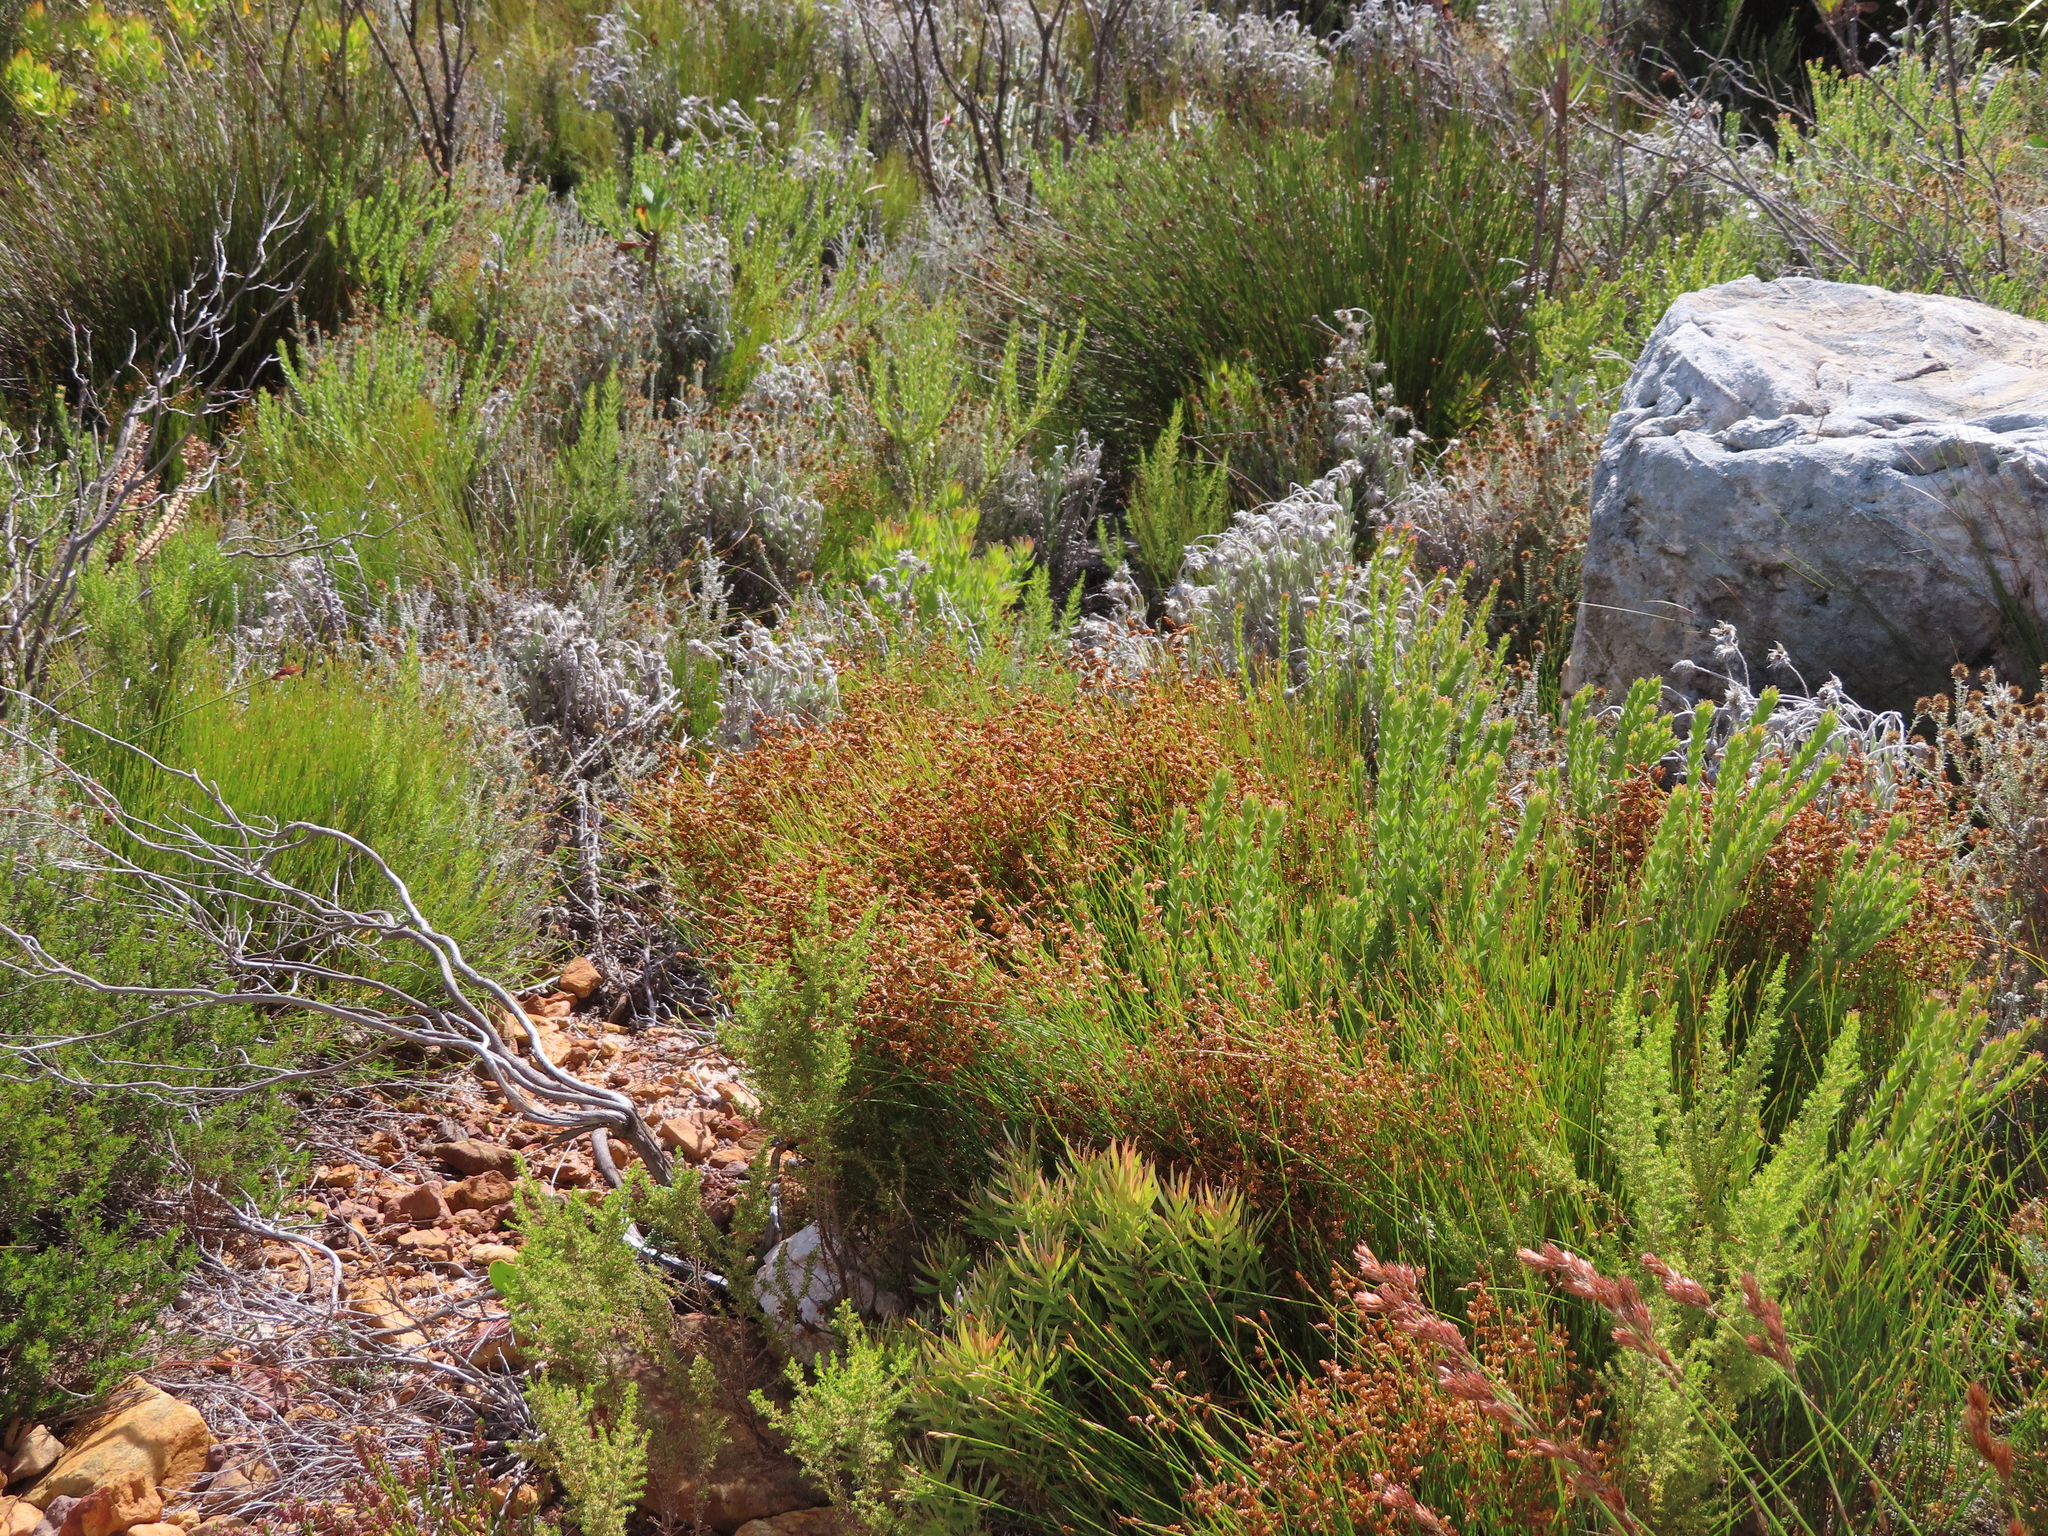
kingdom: Plantae
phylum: Tracheophyta
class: Liliopsida
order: Poales
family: Restionaceae
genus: Mastersiella
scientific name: Mastersiella digitata
